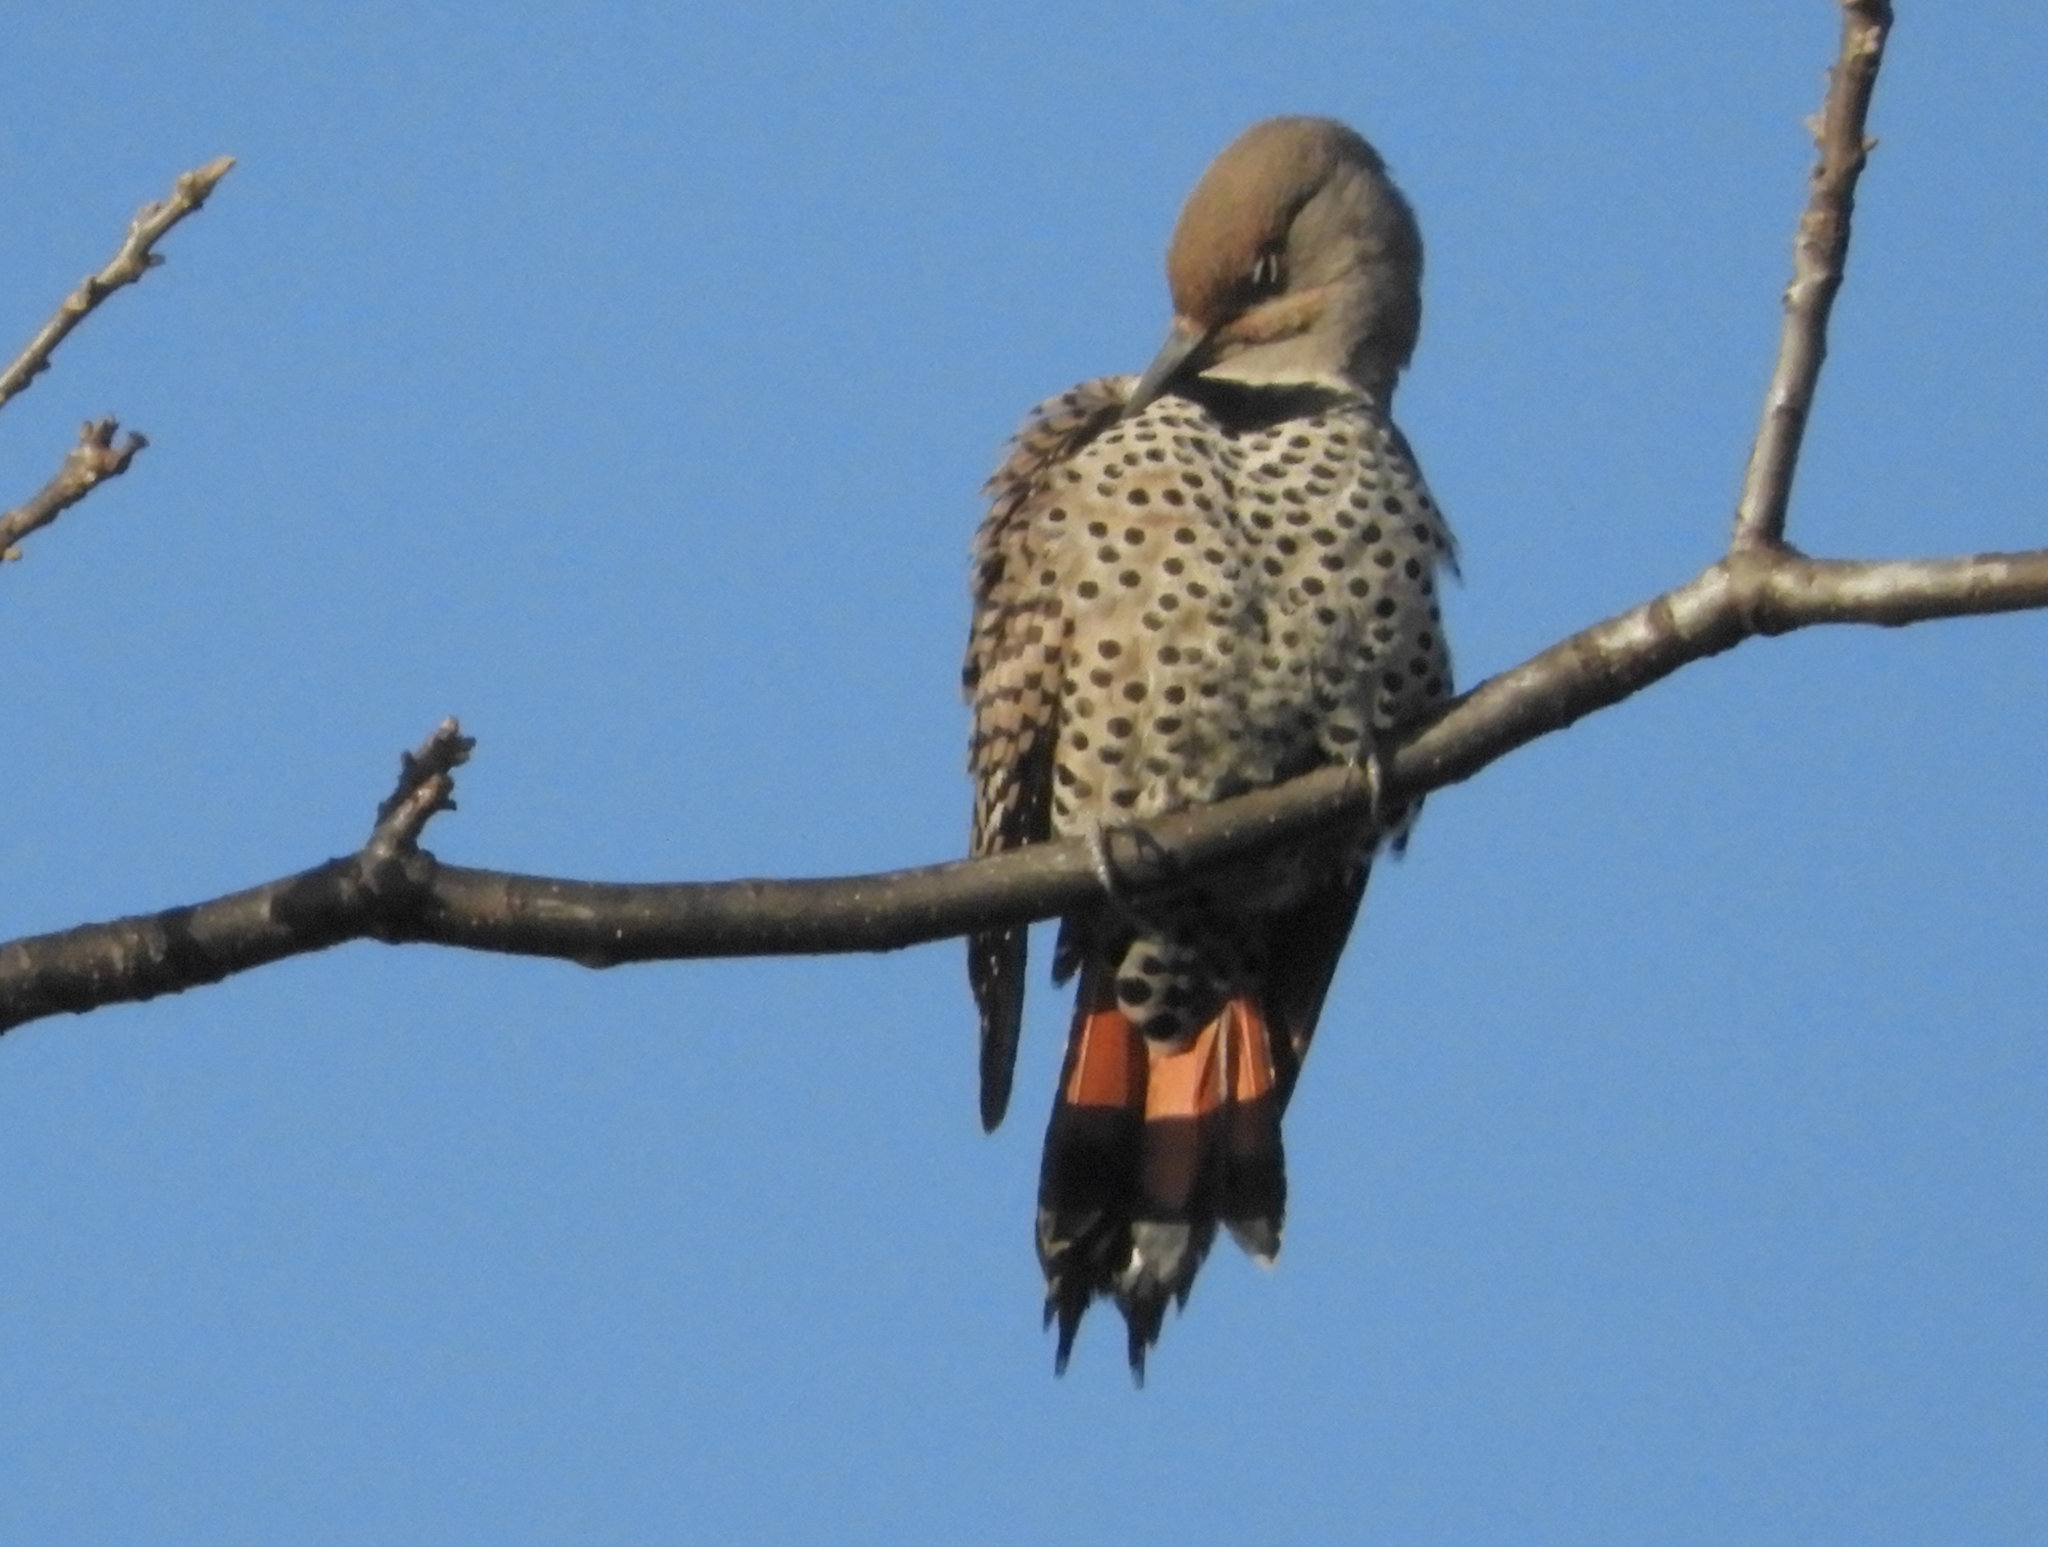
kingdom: Animalia
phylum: Chordata
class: Aves
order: Piciformes
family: Picidae
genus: Colaptes
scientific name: Colaptes auratus
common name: Northern flicker
